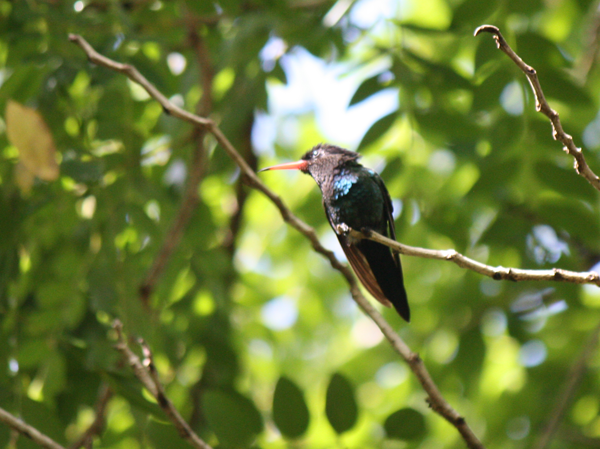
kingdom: Animalia
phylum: Chordata
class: Aves
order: Apodiformes
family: Trochilidae
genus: Trochilus
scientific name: Trochilus polytmus
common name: Red-billed streamertail
